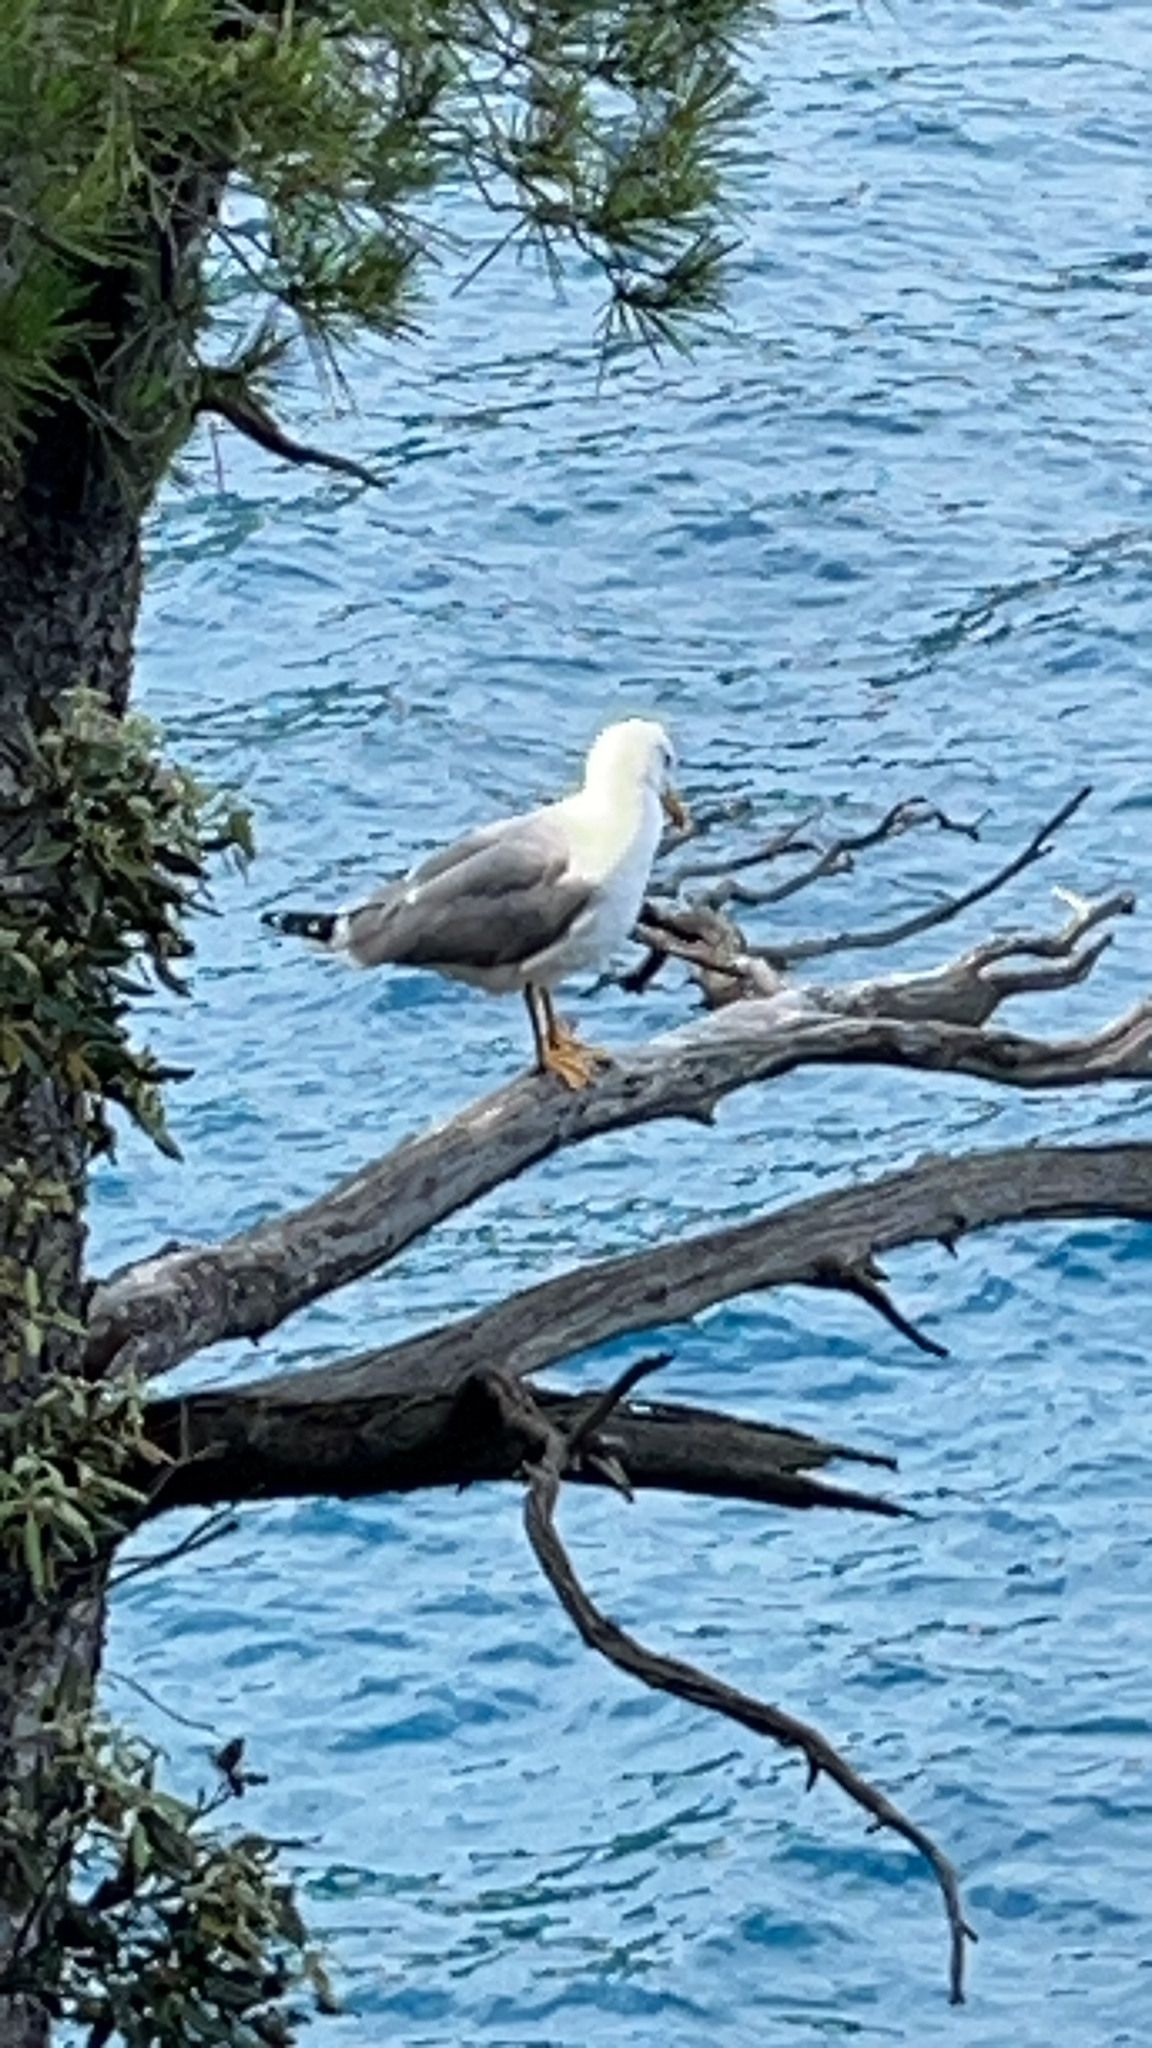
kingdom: Animalia
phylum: Chordata
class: Aves
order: Charadriiformes
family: Laridae
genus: Larus
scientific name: Larus michahellis
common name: Yellow-legged gull
